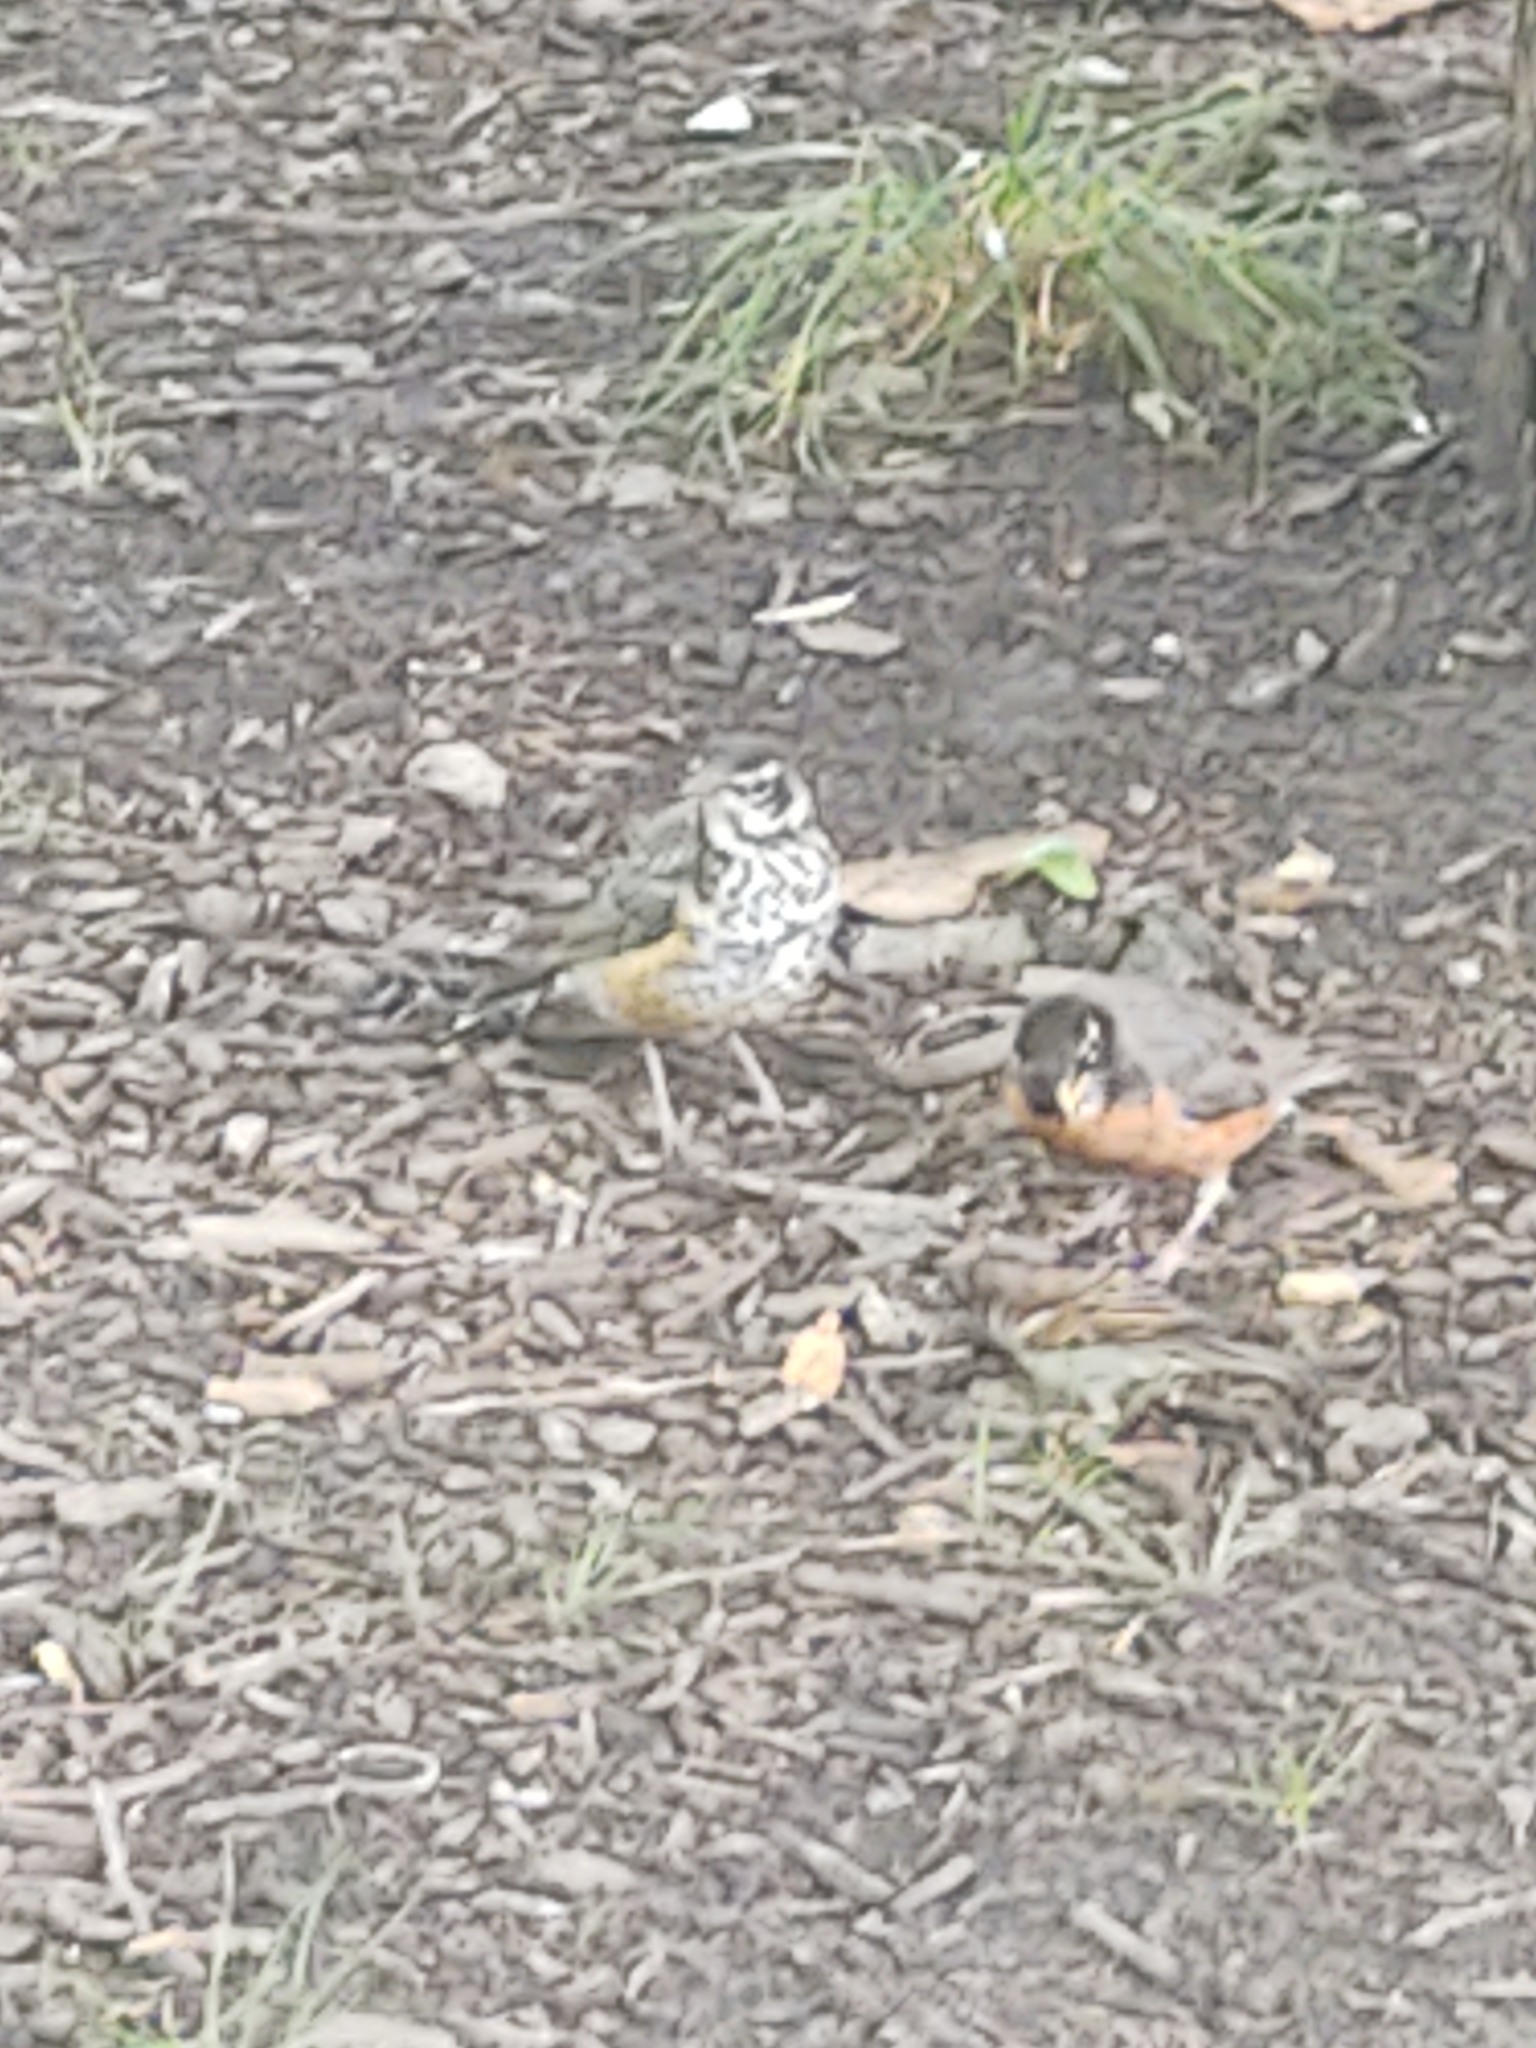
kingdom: Animalia
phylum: Chordata
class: Aves
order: Passeriformes
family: Turdidae
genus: Turdus
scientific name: Turdus migratorius
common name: American robin
